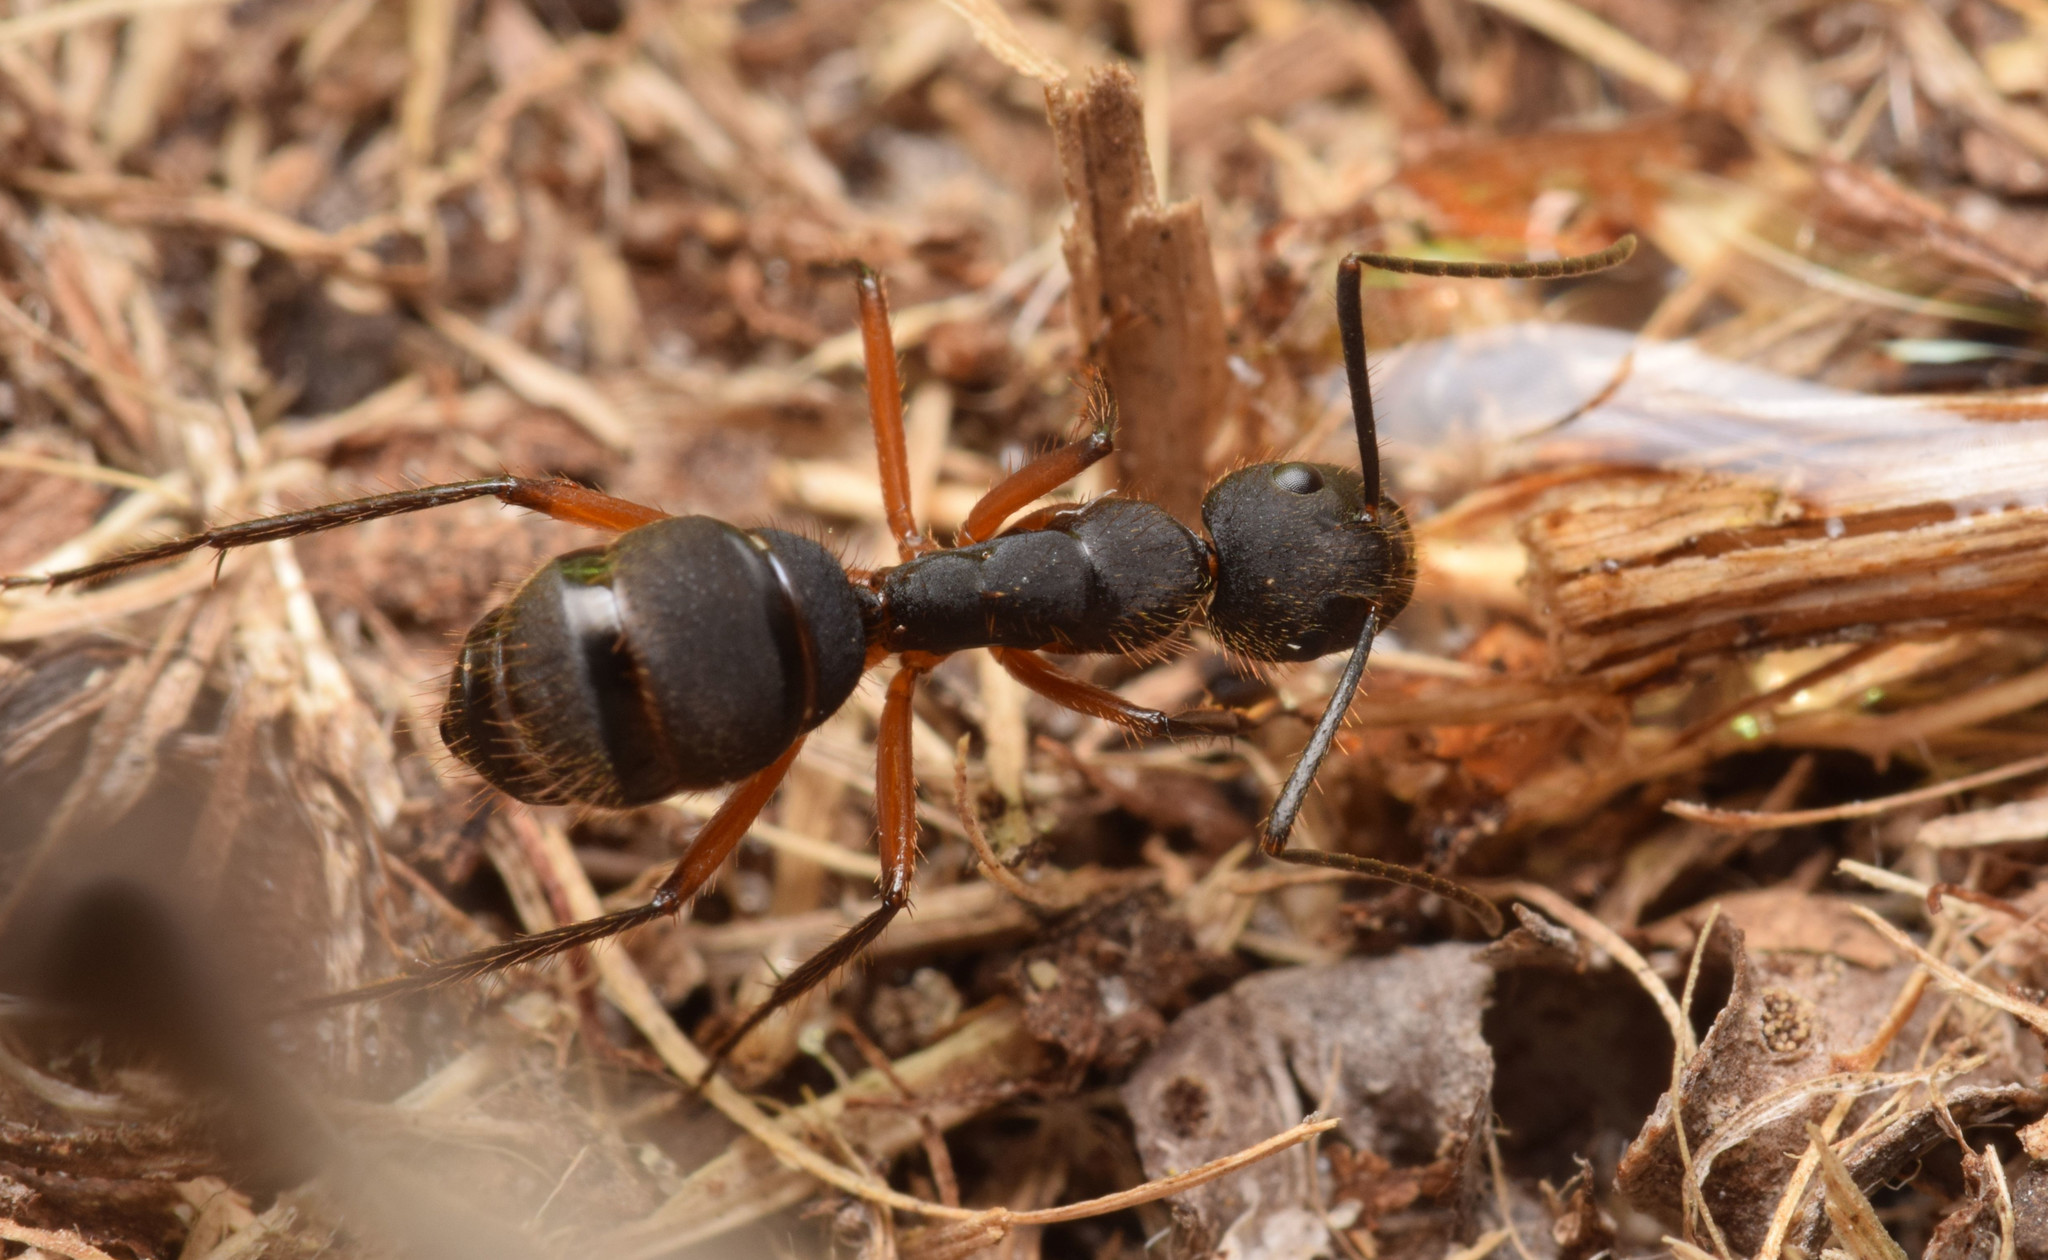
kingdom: Animalia
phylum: Arthropoda
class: Insecta
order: Hymenoptera
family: Formicidae
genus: Camponotus
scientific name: Camponotus rufipes
